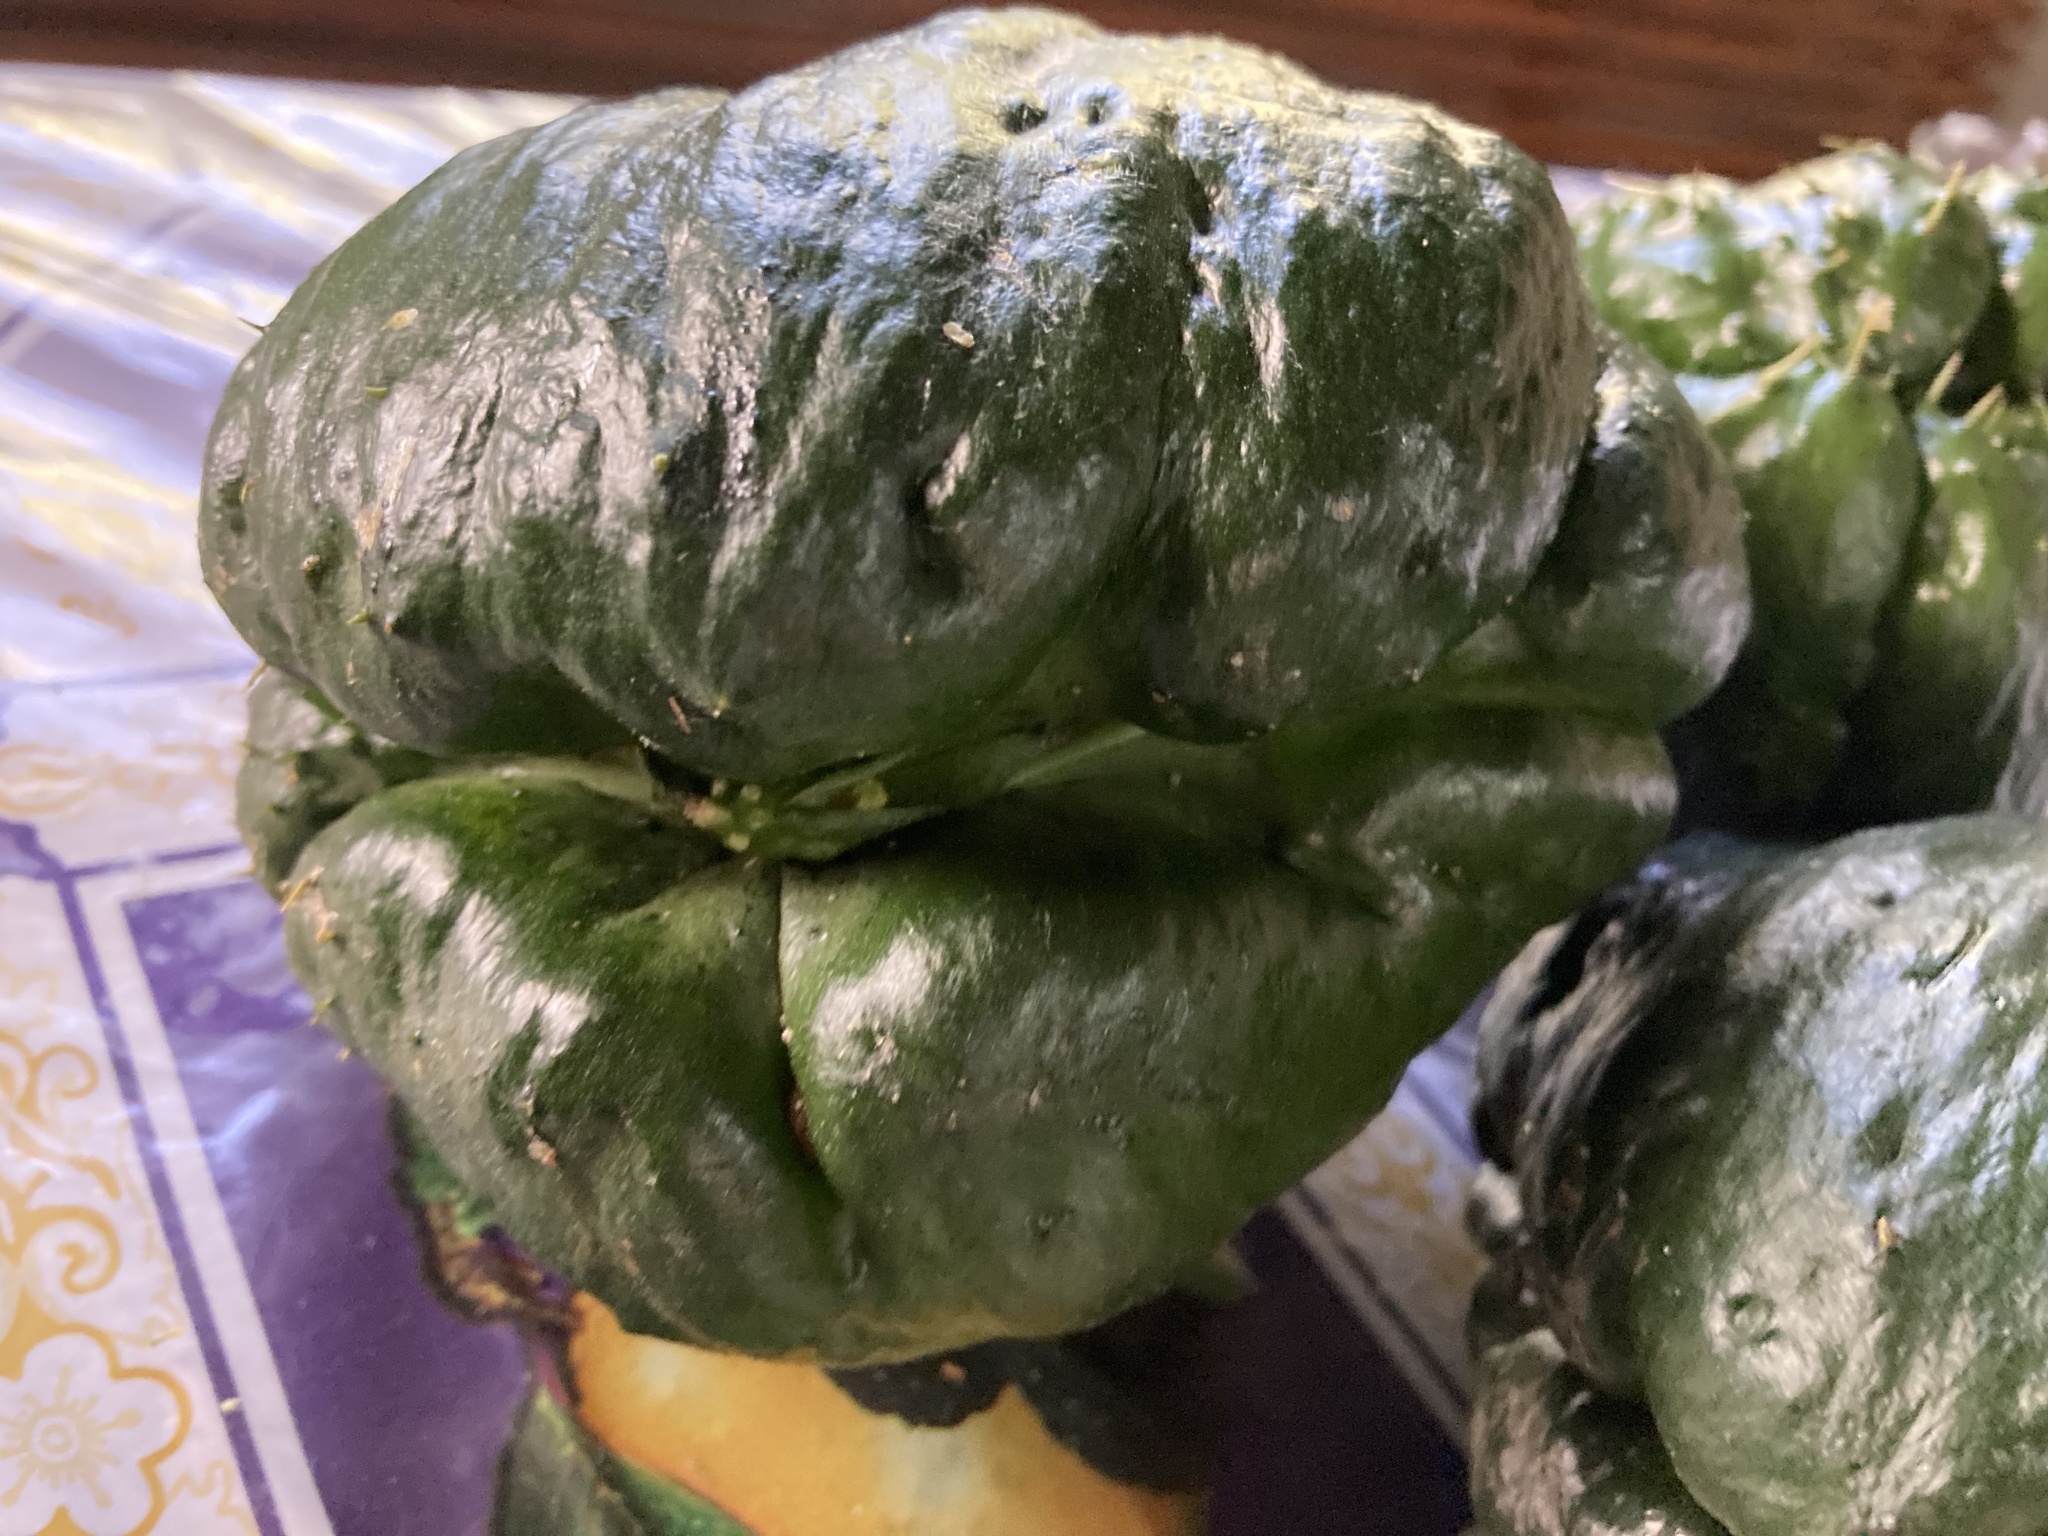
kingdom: Plantae
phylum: Tracheophyta
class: Magnoliopsida
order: Cucurbitales
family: Cucurbitaceae
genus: Sechium
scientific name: Sechium edule
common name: Chayote
